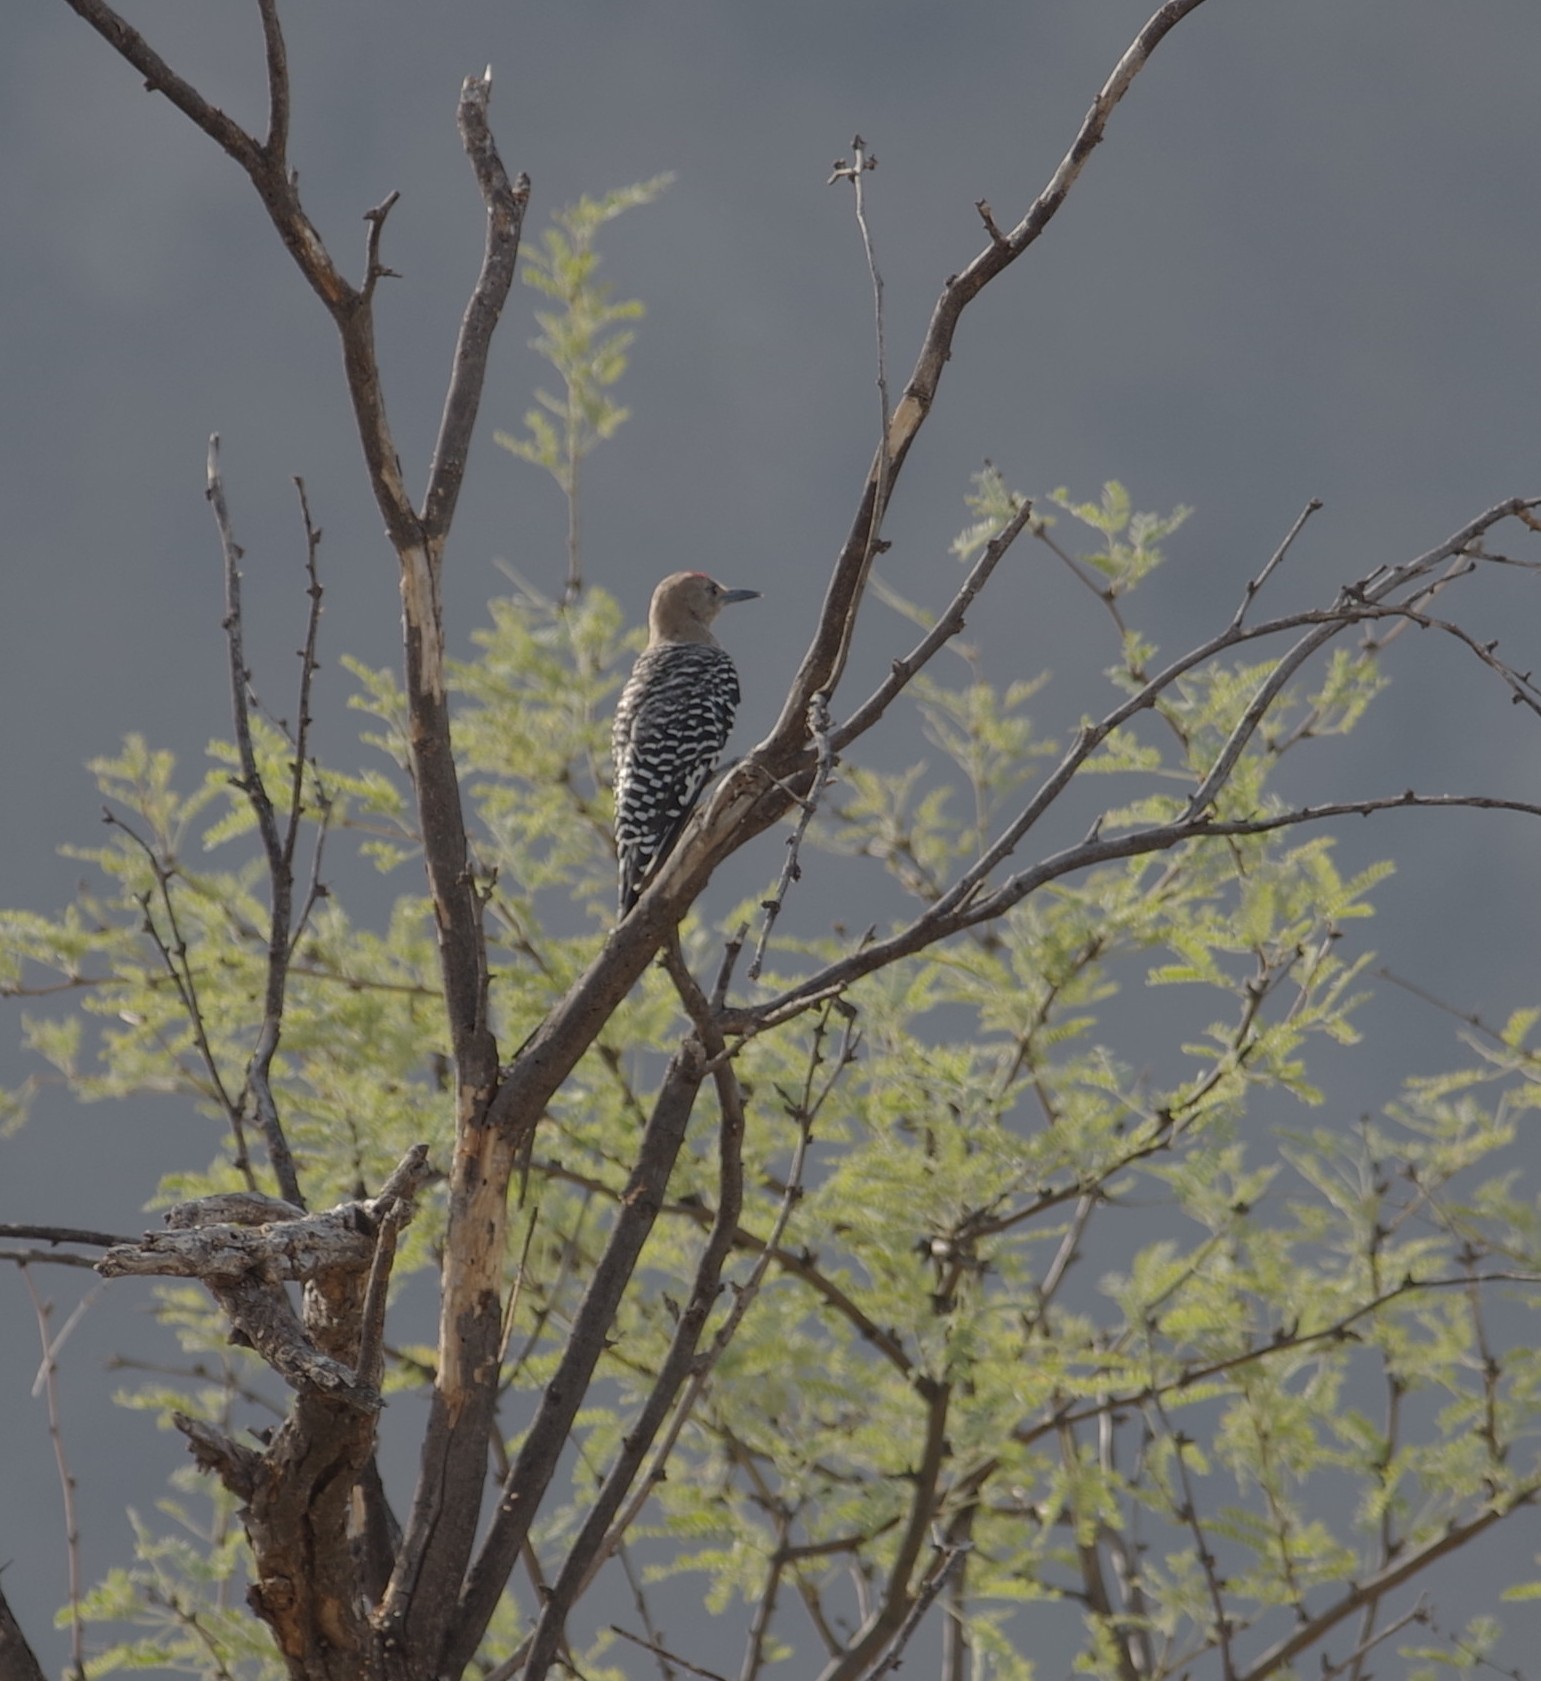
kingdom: Animalia
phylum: Chordata
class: Aves
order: Piciformes
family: Picidae
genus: Melanerpes
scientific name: Melanerpes uropygialis
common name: Gila woodpecker
